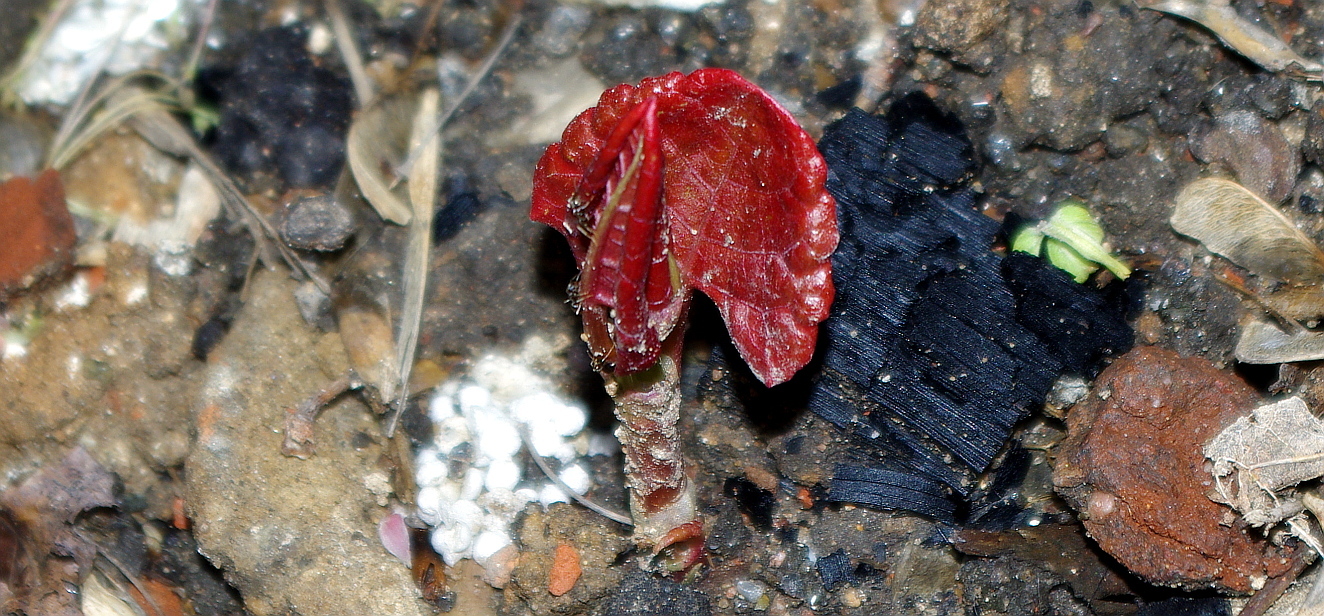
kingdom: Plantae
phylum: Tracheophyta
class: Magnoliopsida
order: Caryophyllales
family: Polygonaceae
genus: Reynoutria
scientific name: Reynoutria bohemica
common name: Bohemian knotweed
